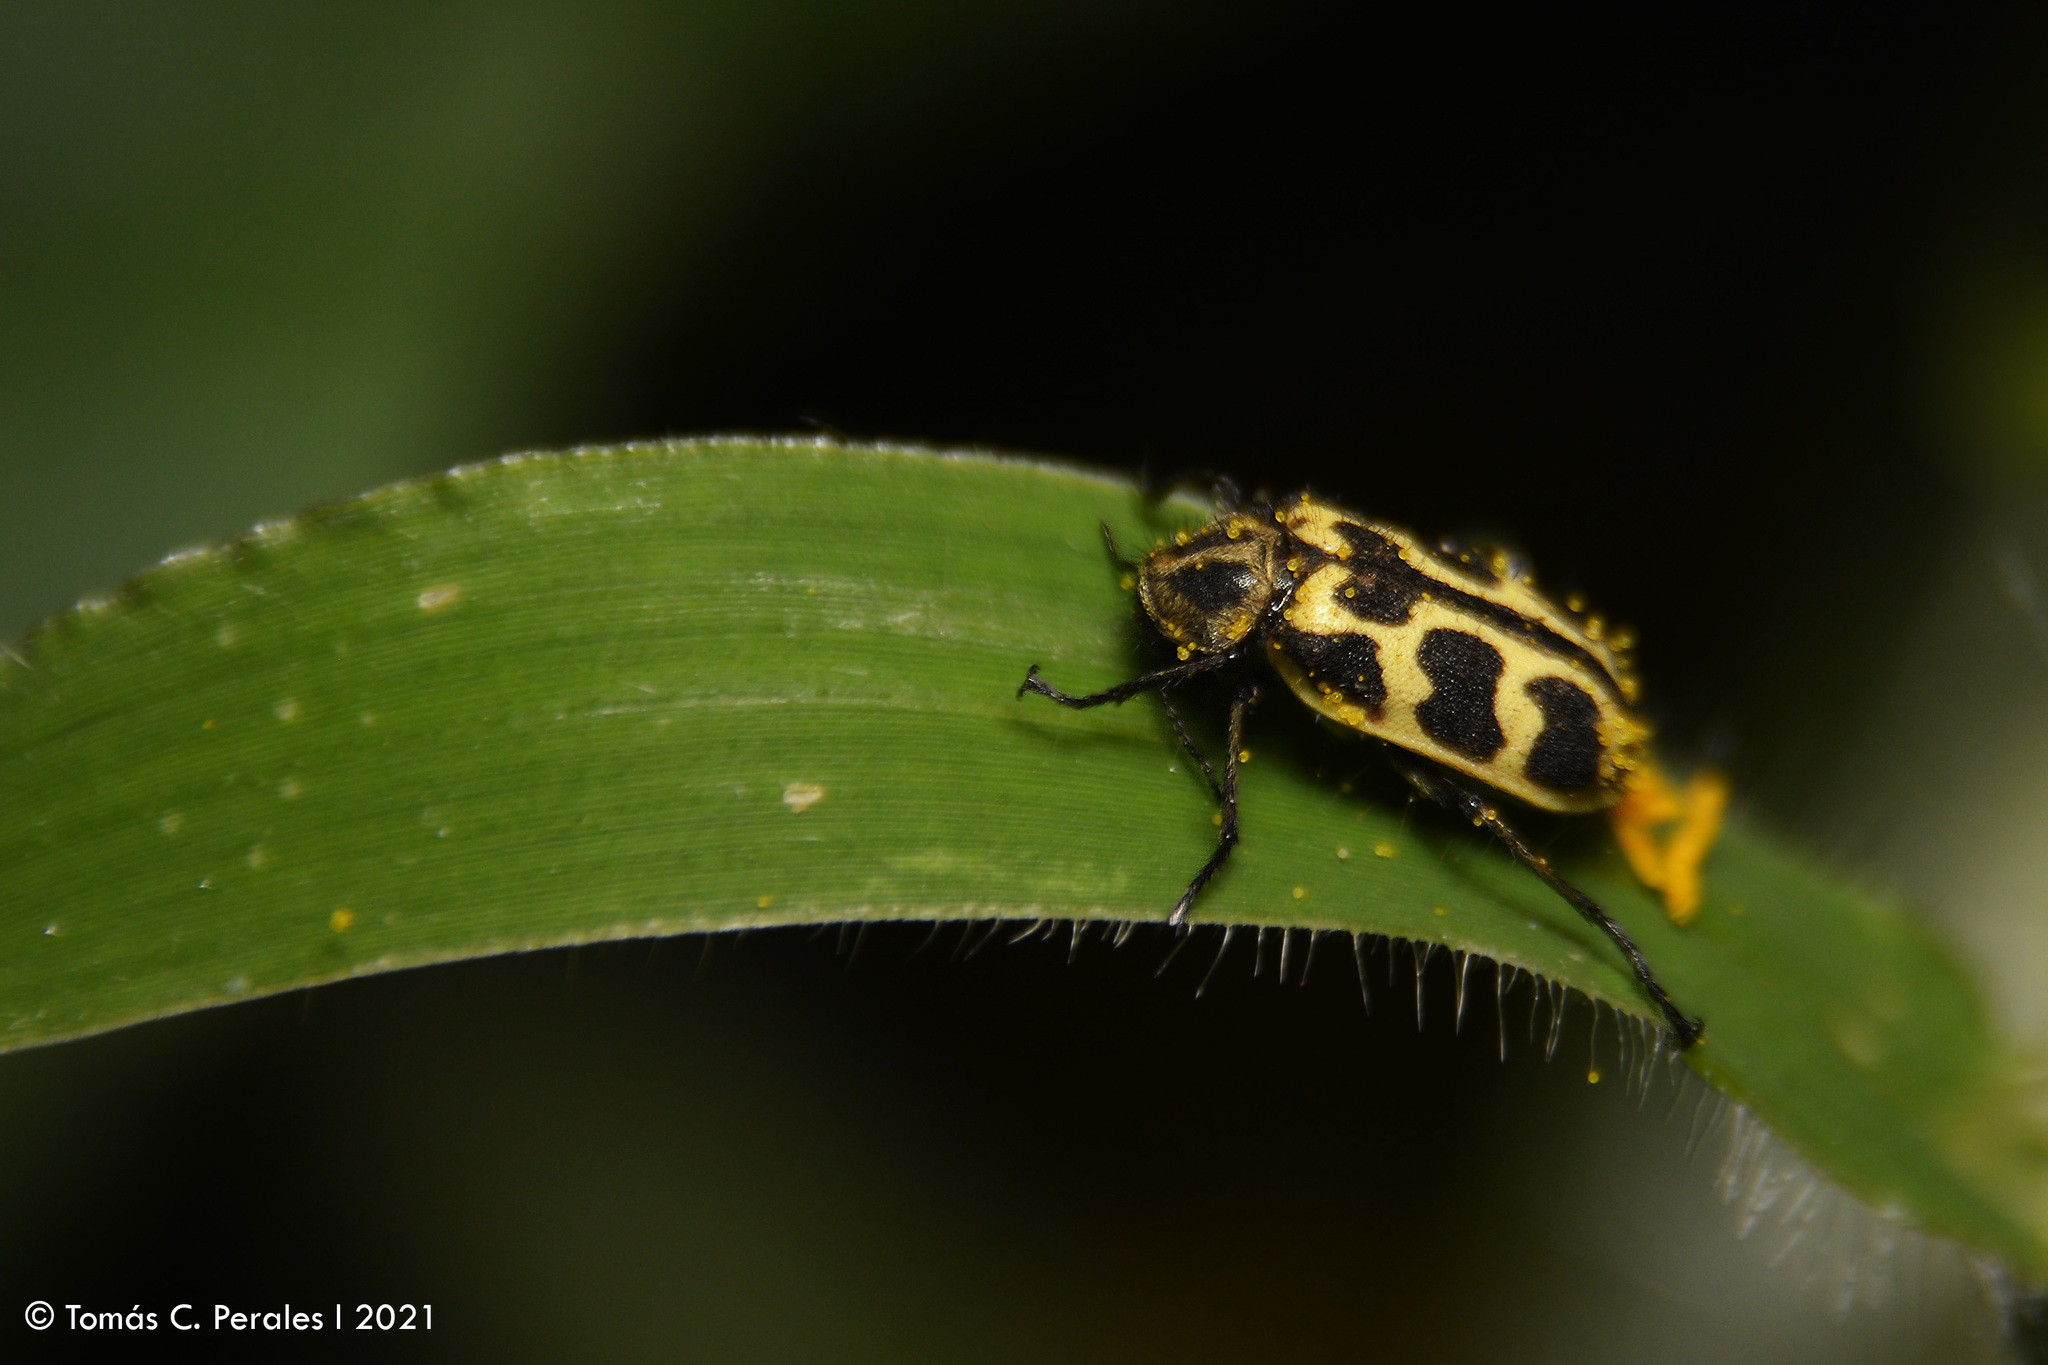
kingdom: Animalia
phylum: Arthropoda
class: Insecta
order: Coleoptera
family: Melyridae
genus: Astylus
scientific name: Astylus atromaculatus
